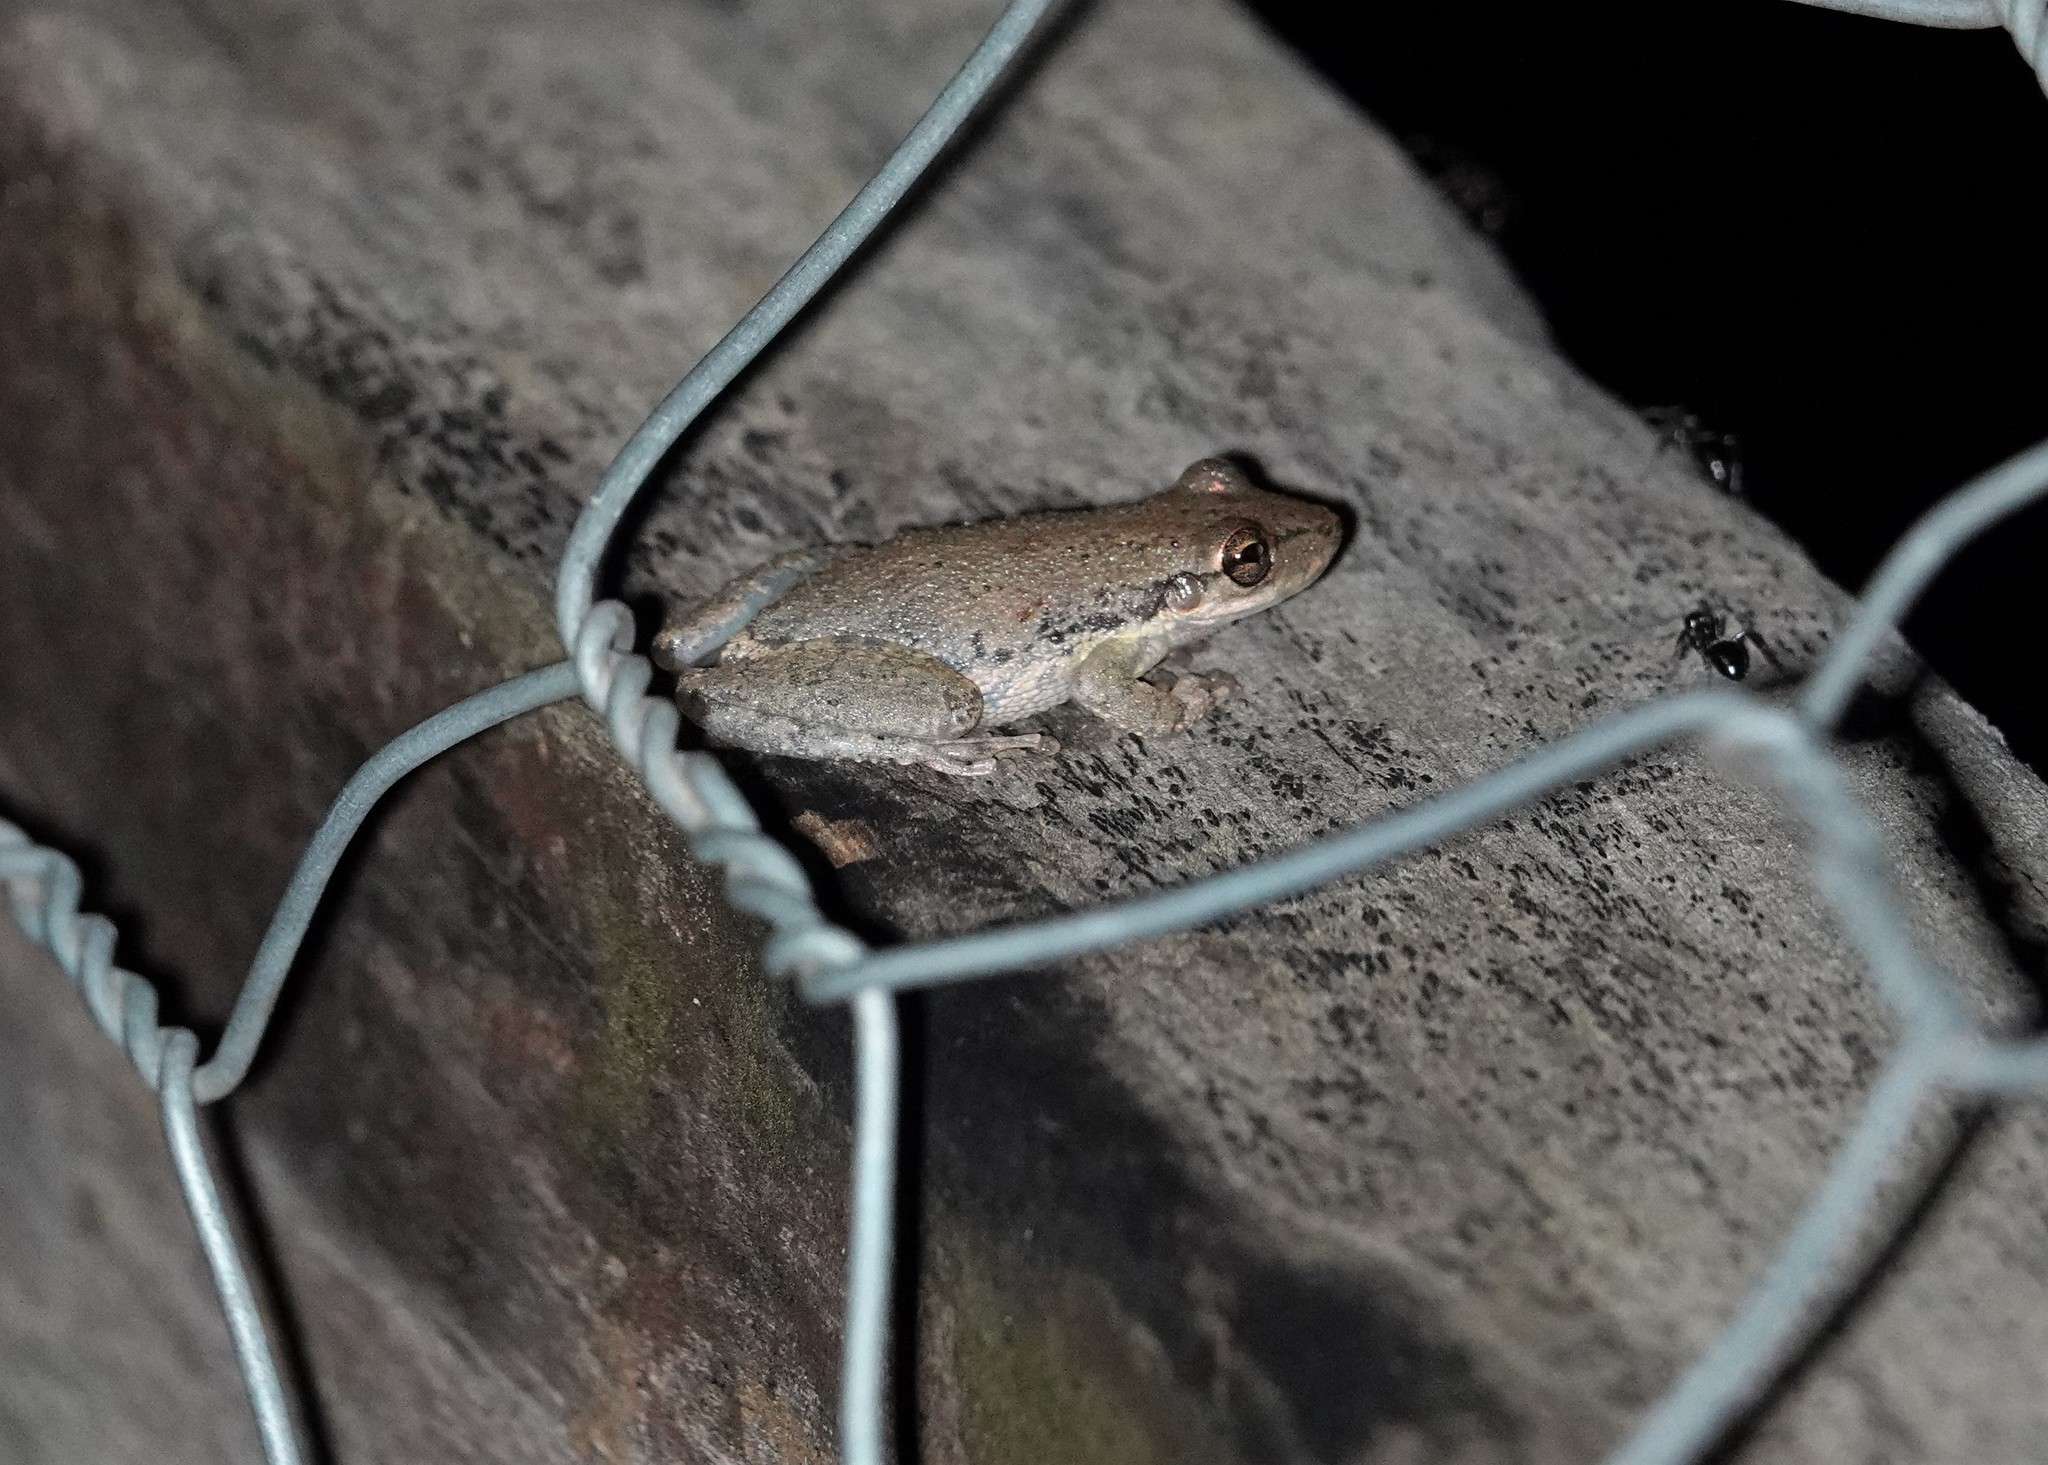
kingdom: Animalia
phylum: Chordata
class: Amphibia
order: Anura
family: Hylidae
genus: Scinax
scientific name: Scinax nasicus
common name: Lesser snouted treefrog
